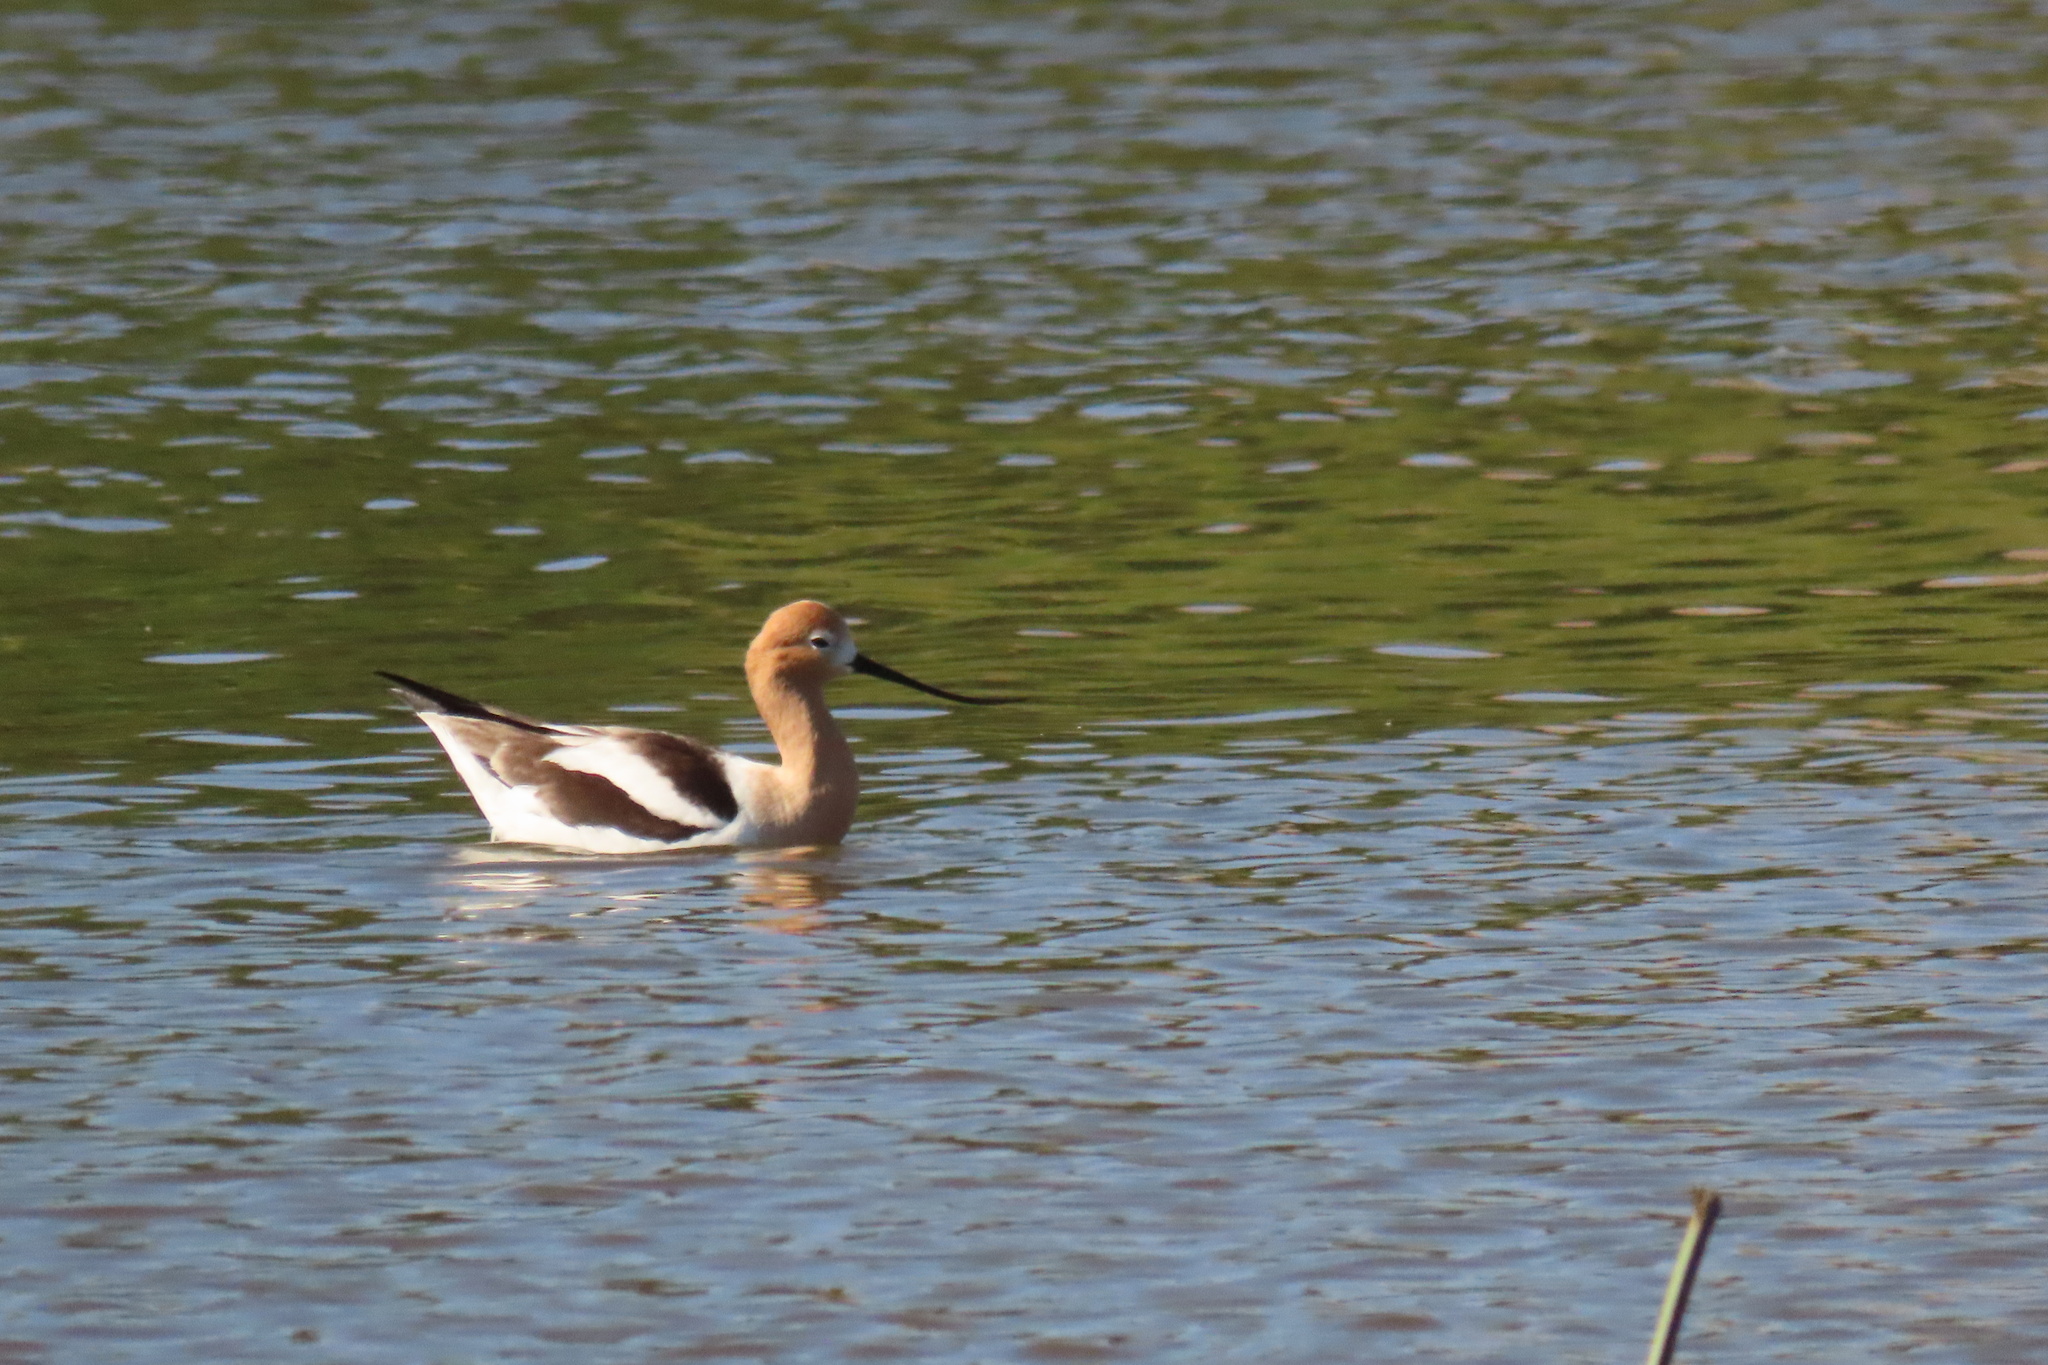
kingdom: Animalia
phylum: Chordata
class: Aves
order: Charadriiformes
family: Recurvirostridae
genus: Recurvirostra
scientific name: Recurvirostra americana
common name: American avocet
